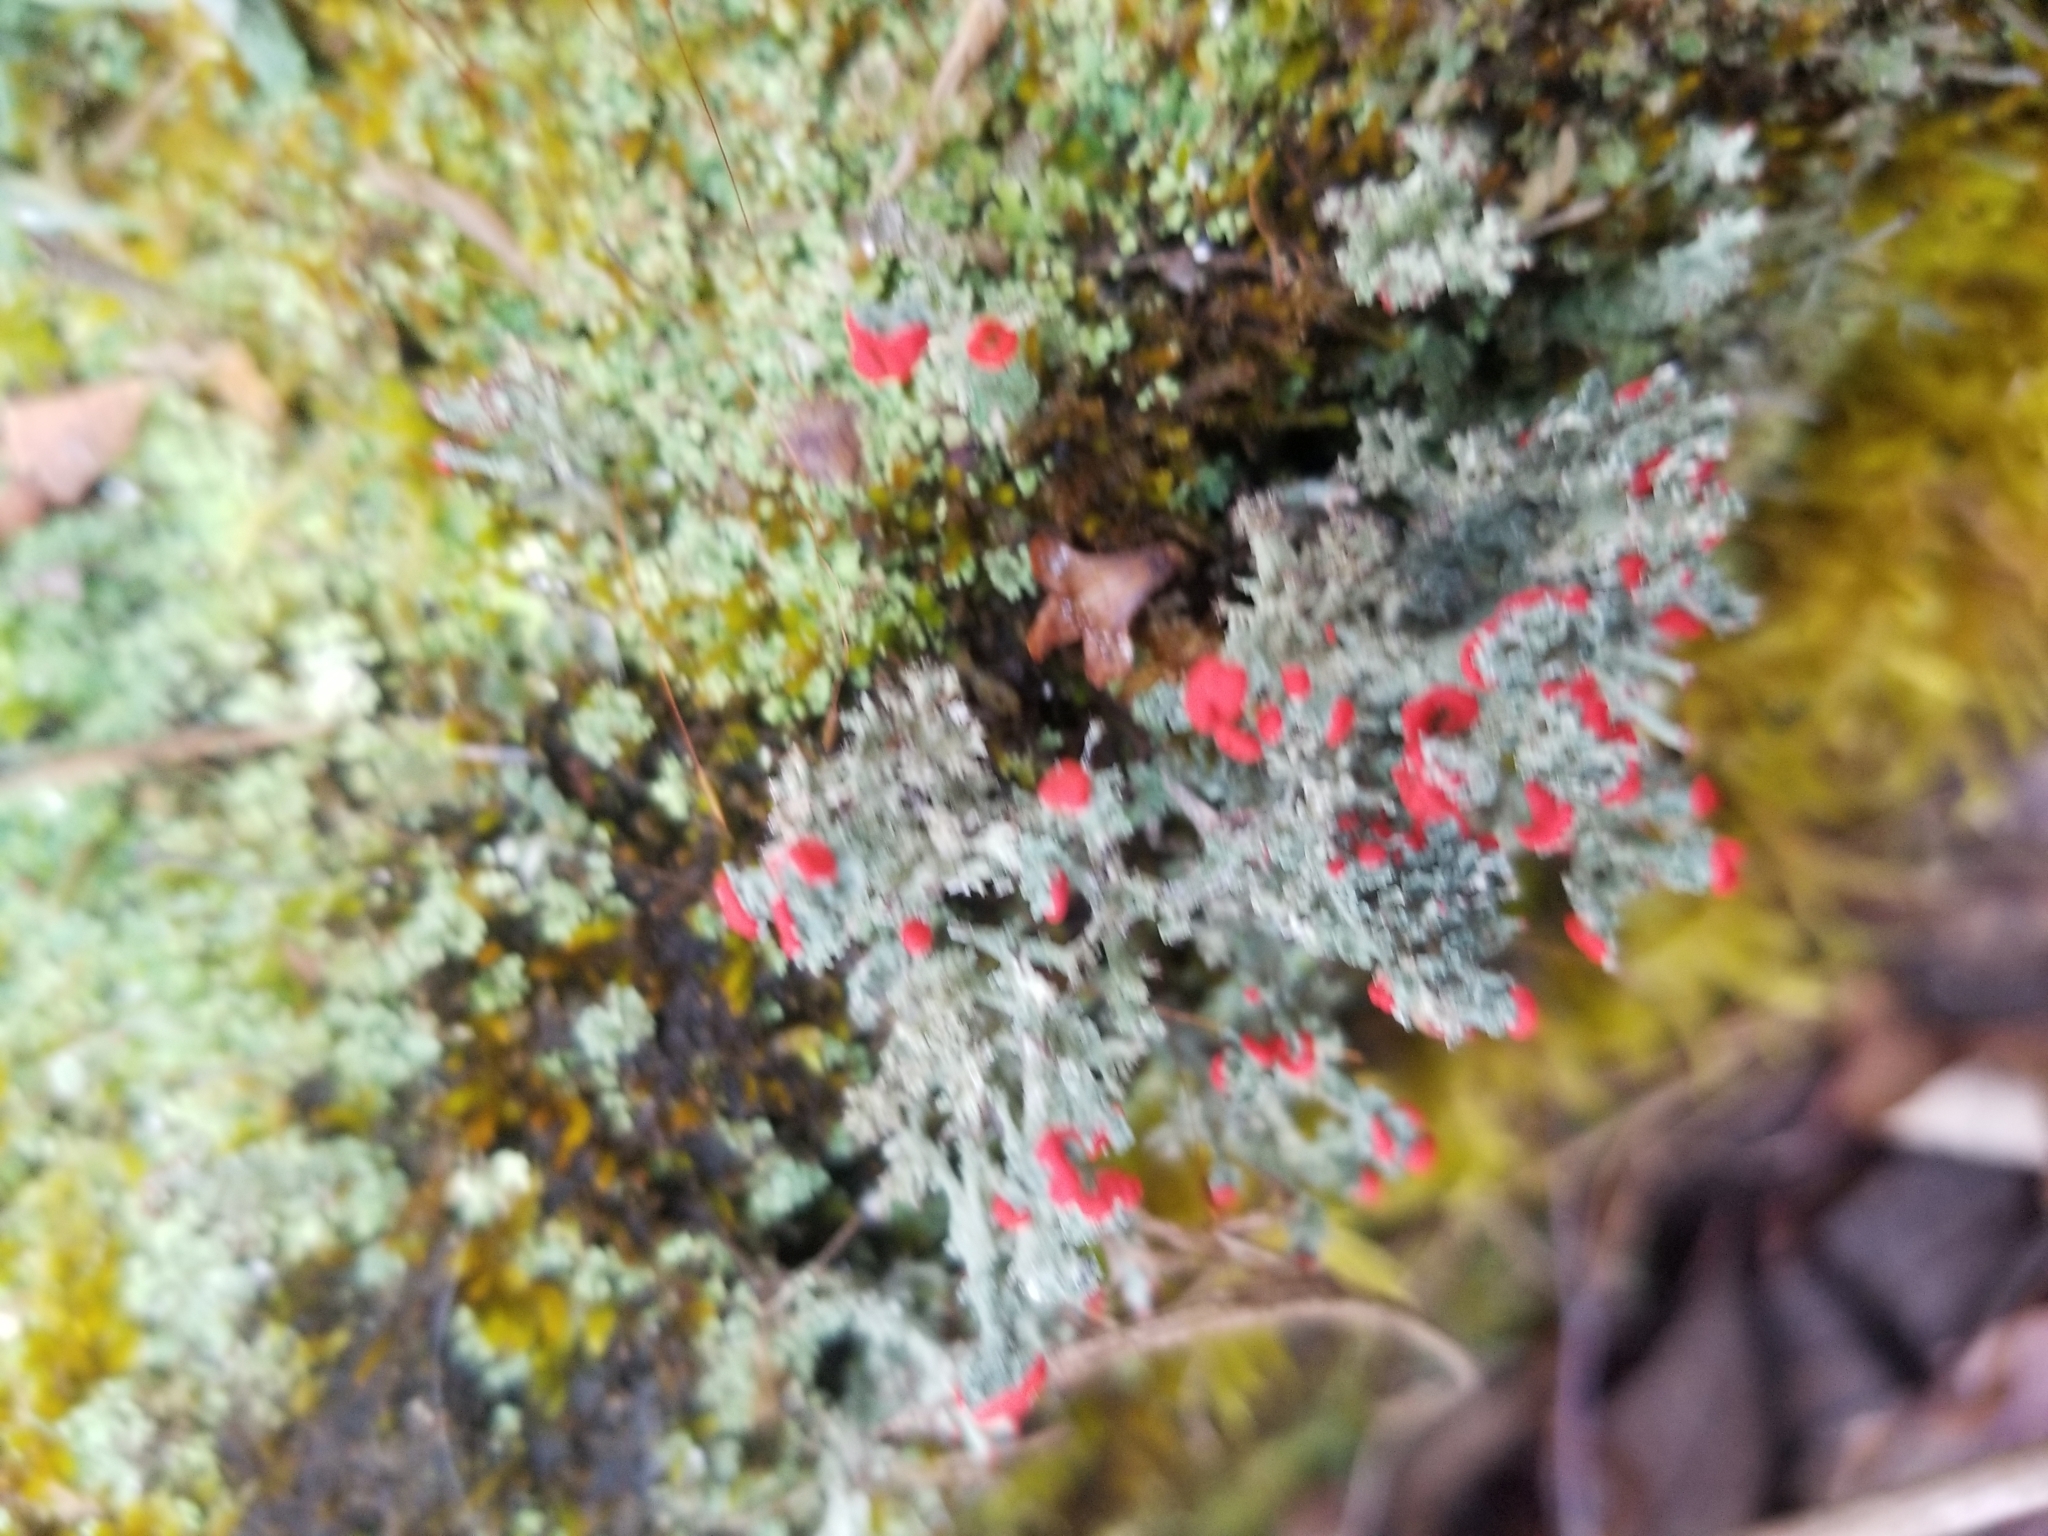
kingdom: Fungi
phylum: Ascomycota
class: Lecanoromycetes
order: Lecanorales
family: Cladoniaceae
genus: Cladonia
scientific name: Cladonia cristatella
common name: British soldier lichen
